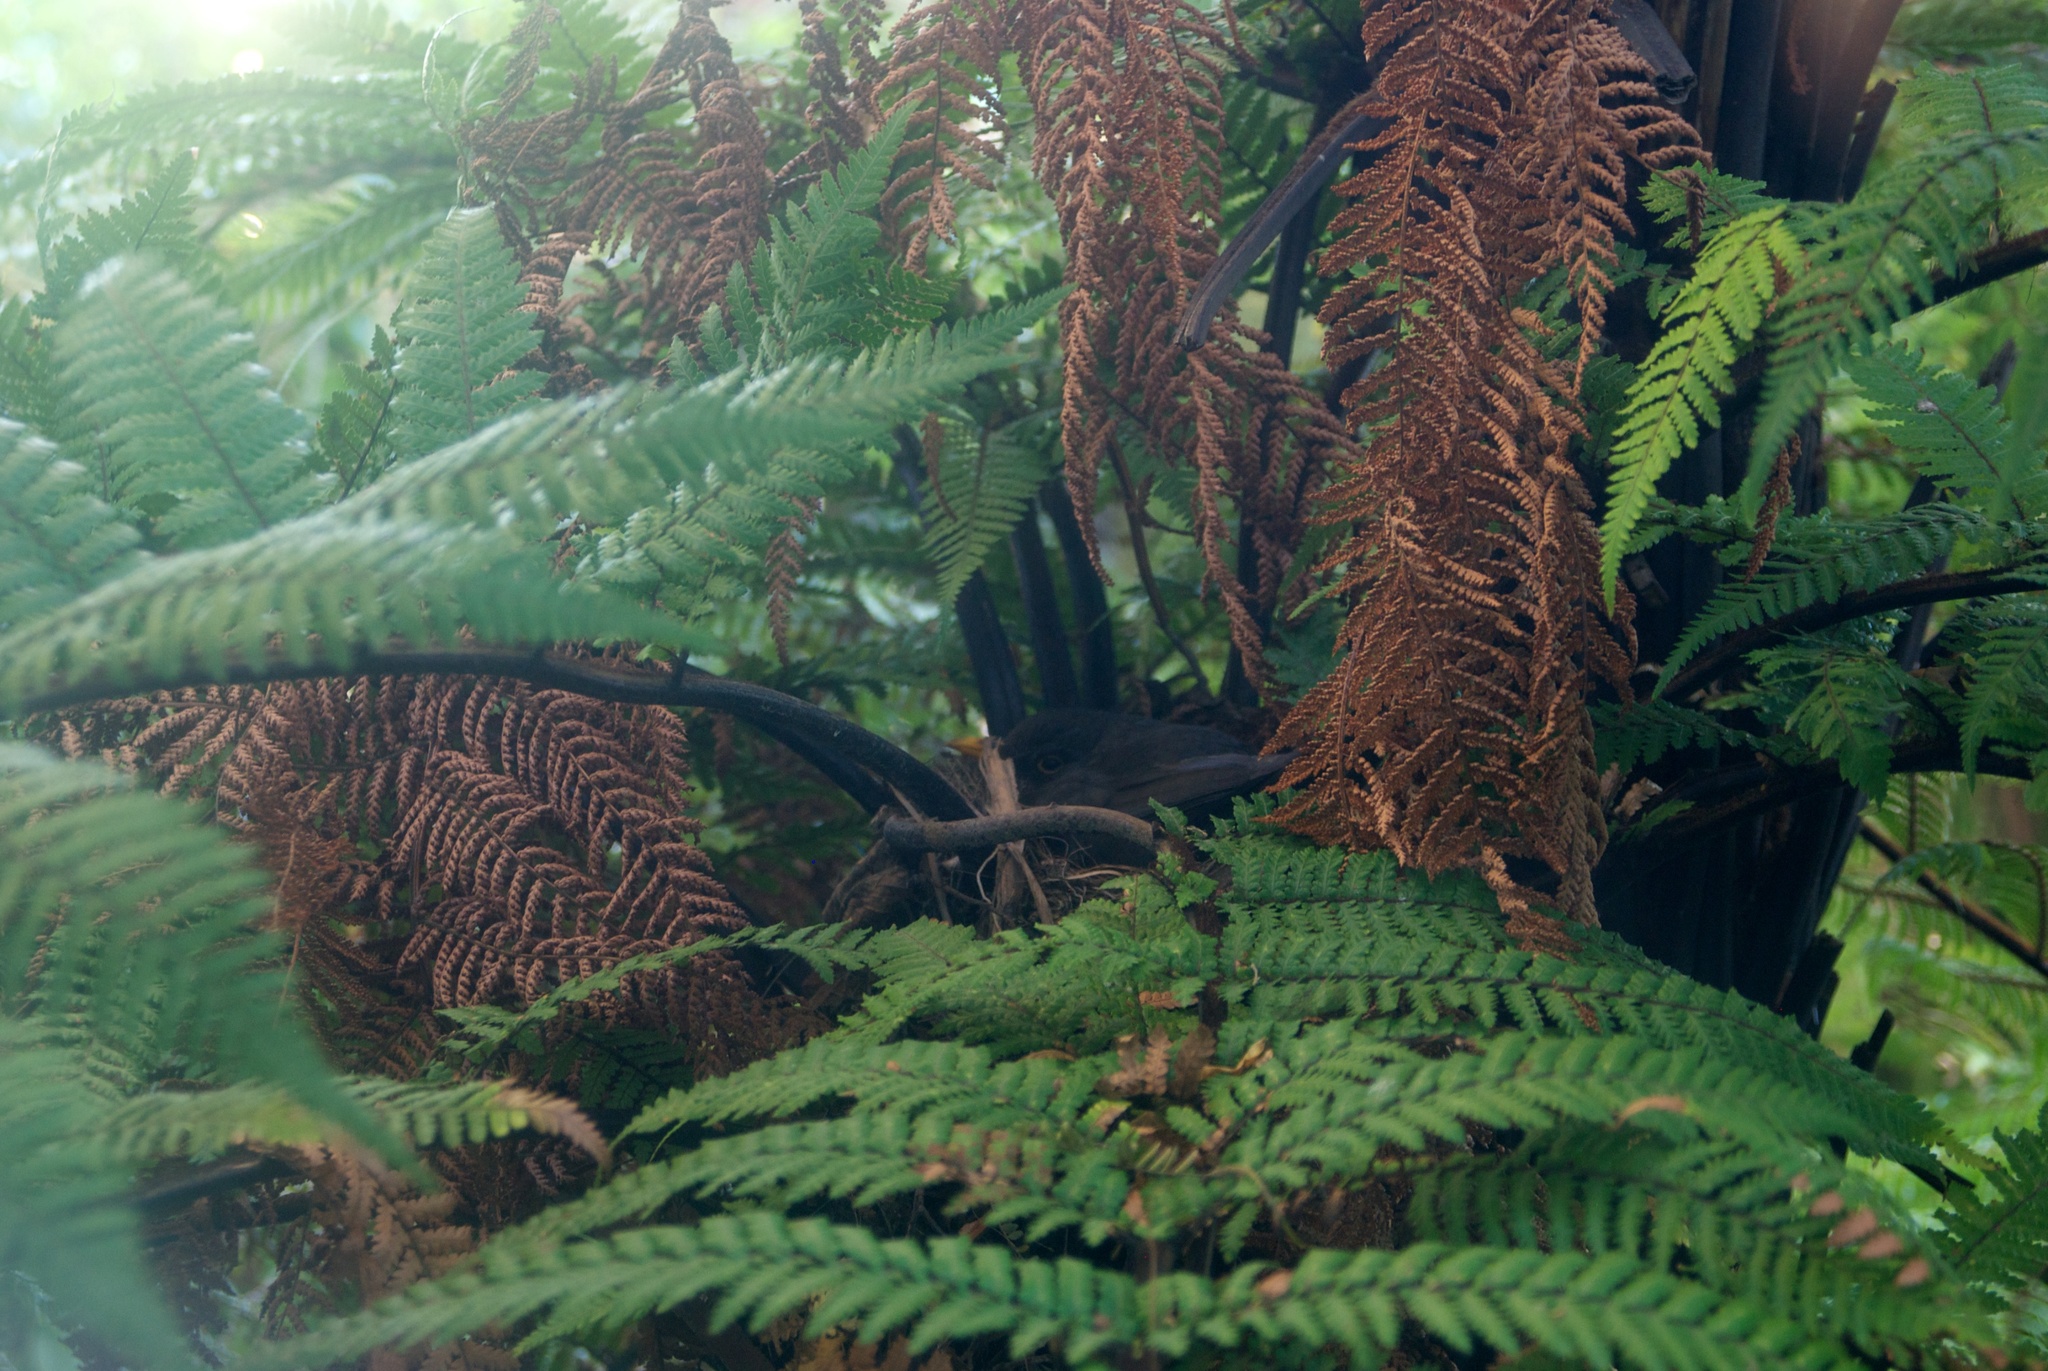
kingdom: Animalia
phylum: Chordata
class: Aves
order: Passeriformes
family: Turdidae
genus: Turdus
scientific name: Turdus merula
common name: Common blackbird
